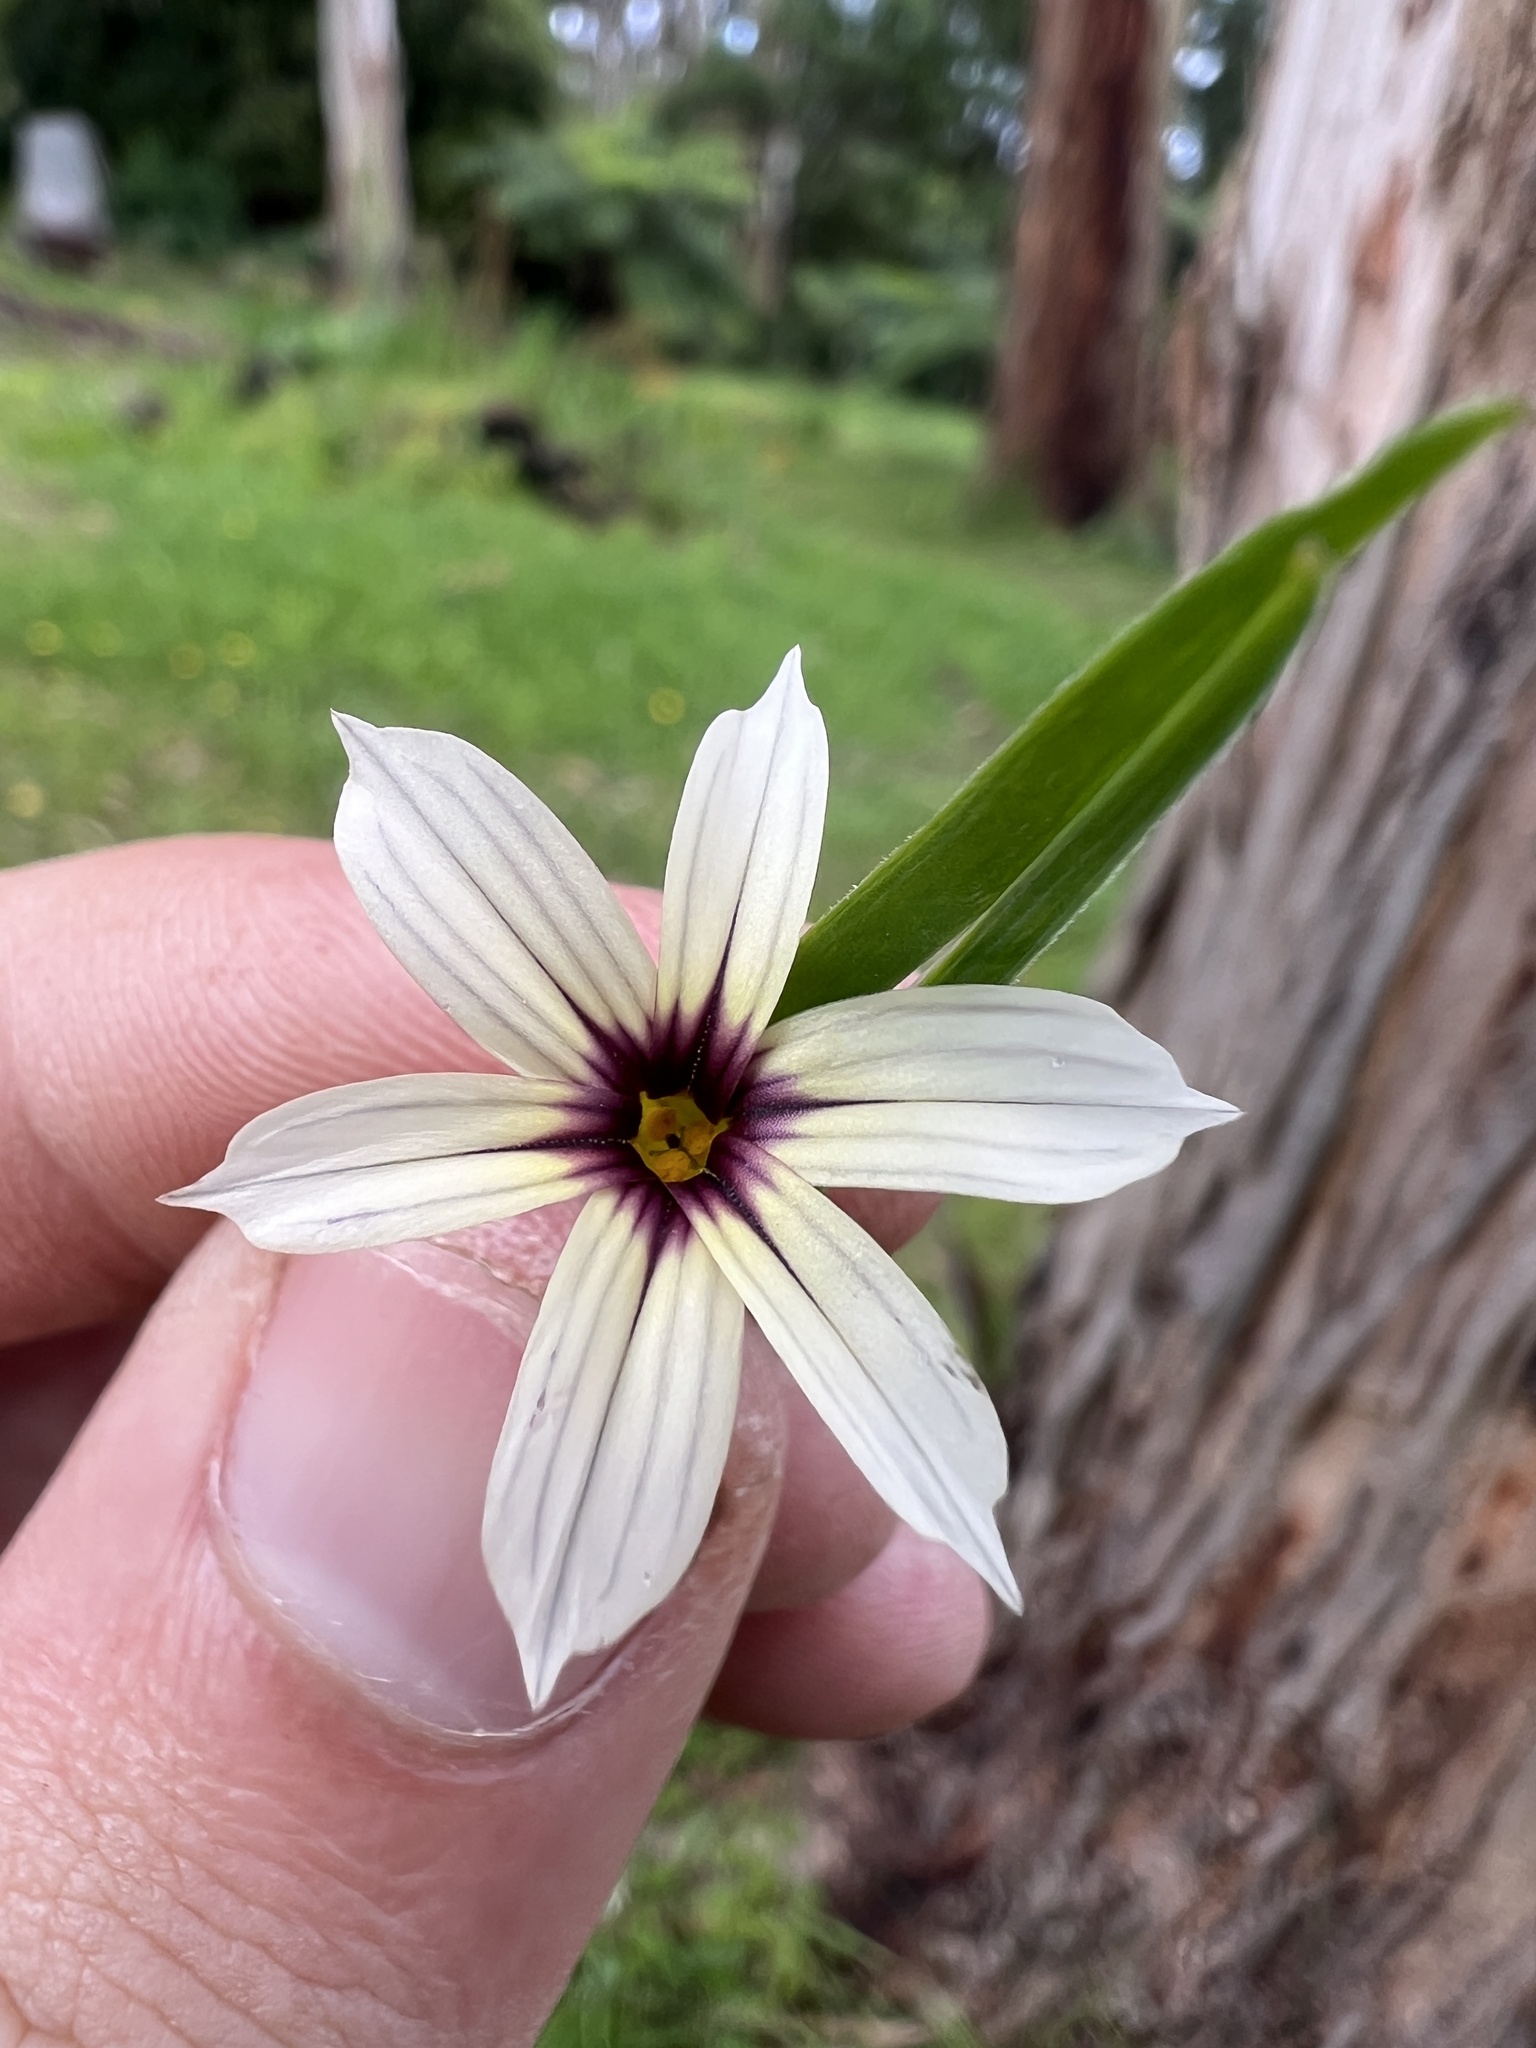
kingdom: Plantae
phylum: Tracheophyta
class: Liliopsida
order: Asparagales
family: Iridaceae
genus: Sisyrinchium
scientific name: Sisyrinchium micranthum
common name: Bermuda pigroot
